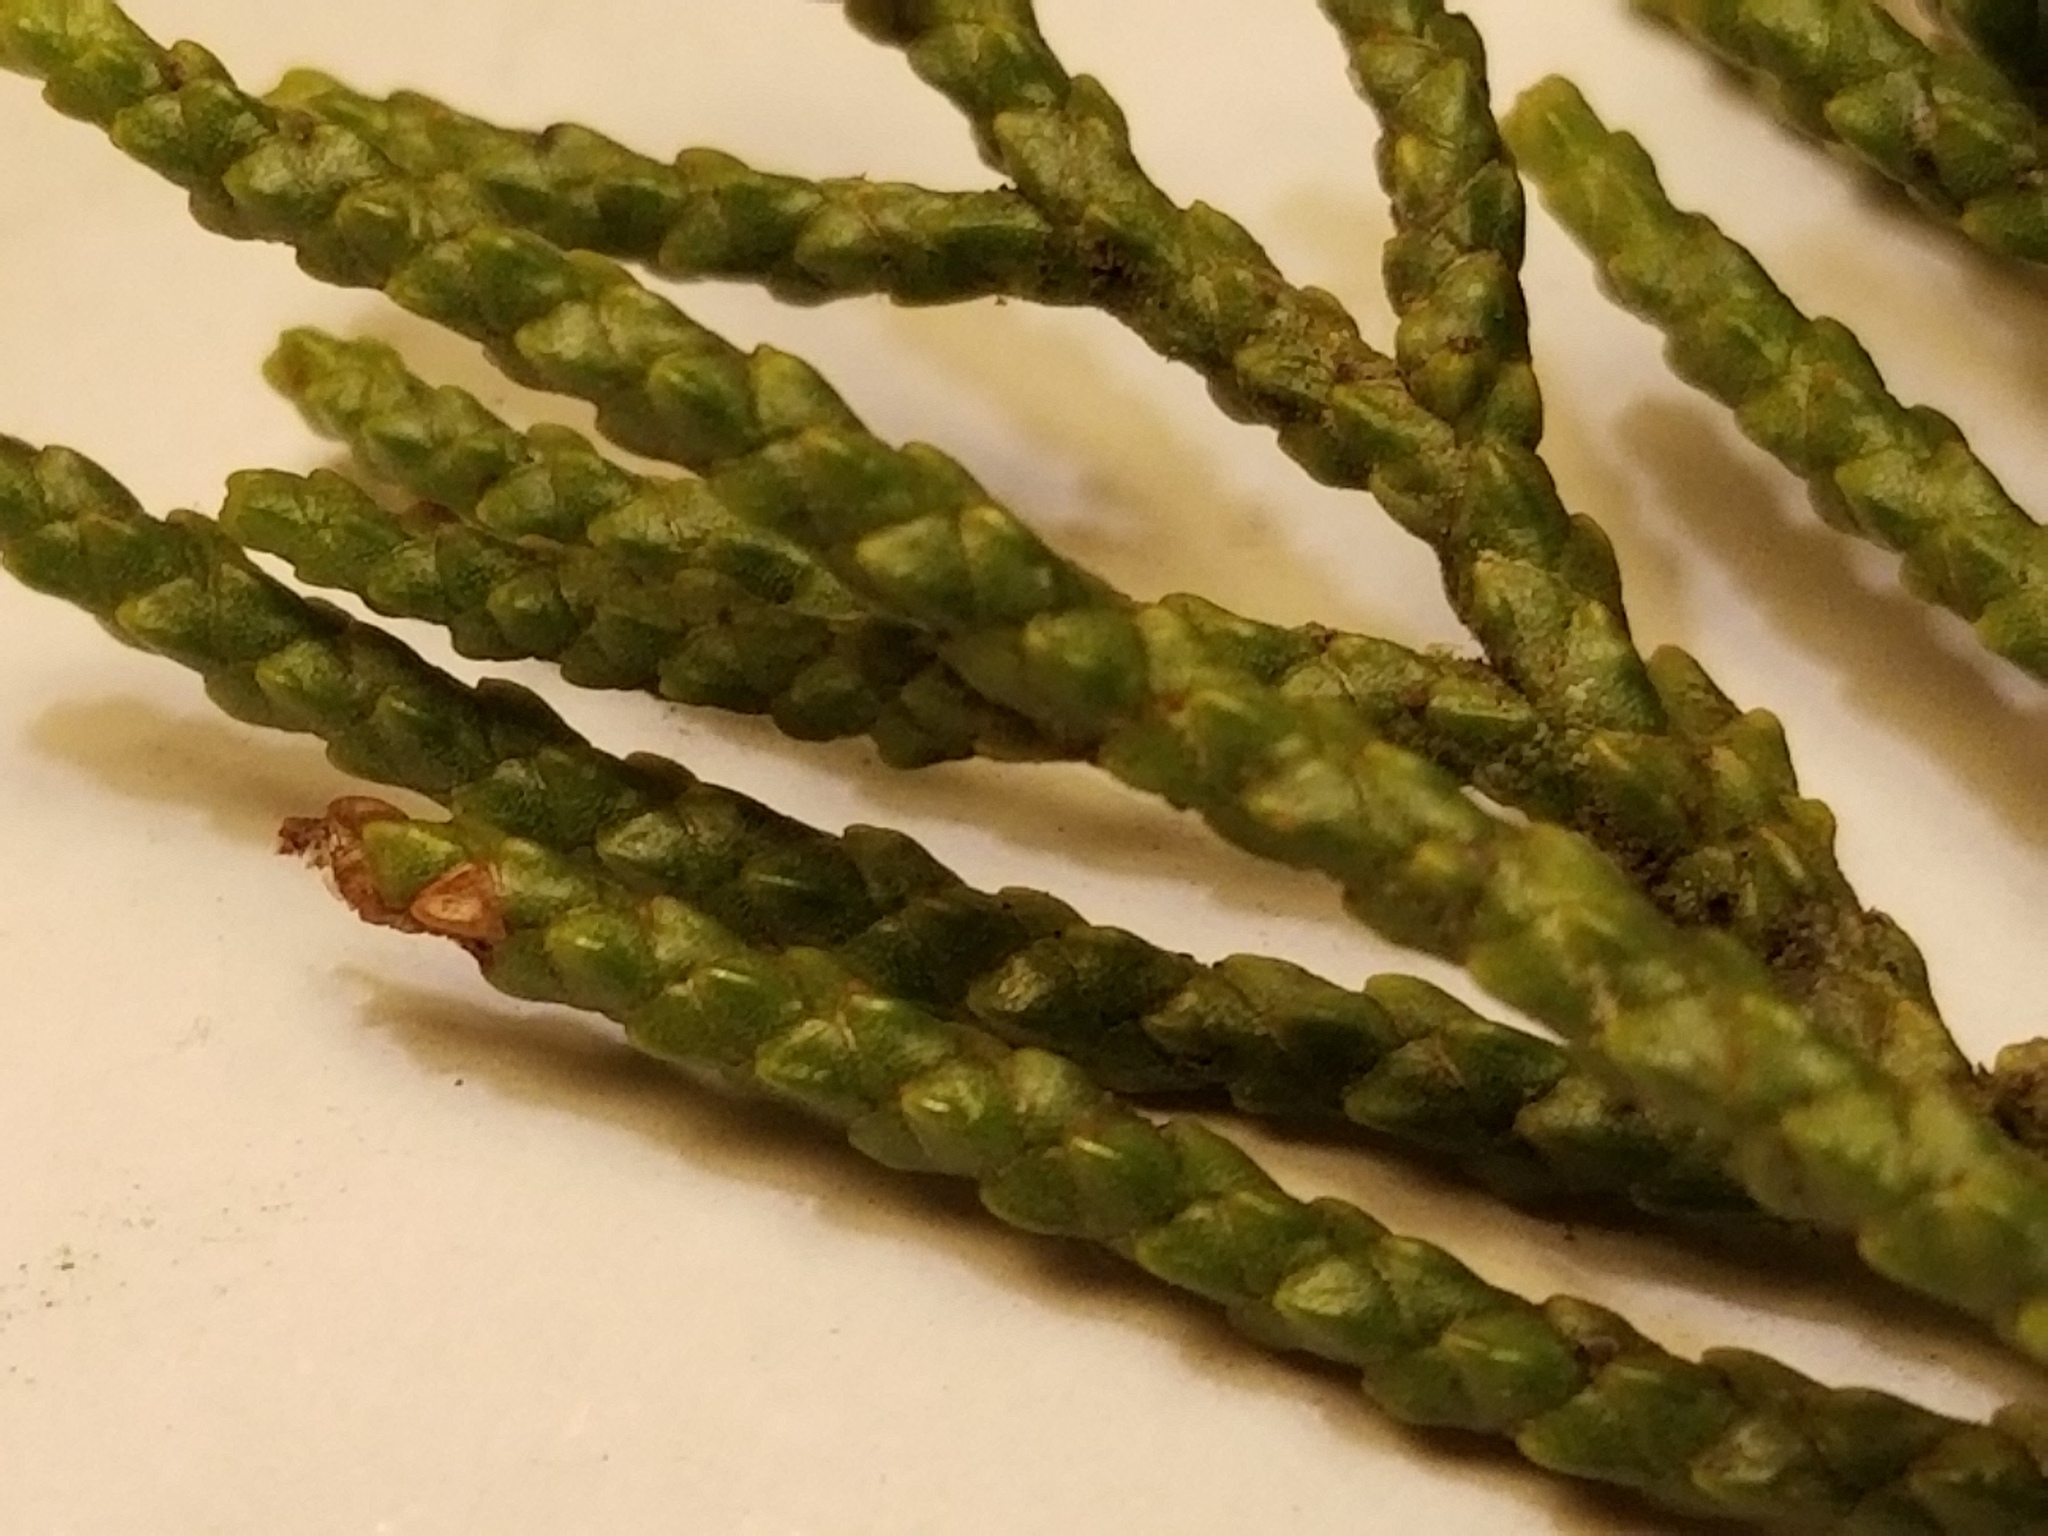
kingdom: Plantae
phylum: Tracheophyta
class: Pinopsida
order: Pinales
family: Podocarpaceae
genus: Halocarpus
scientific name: Halocarpus biformis
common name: Alpine tarwood
